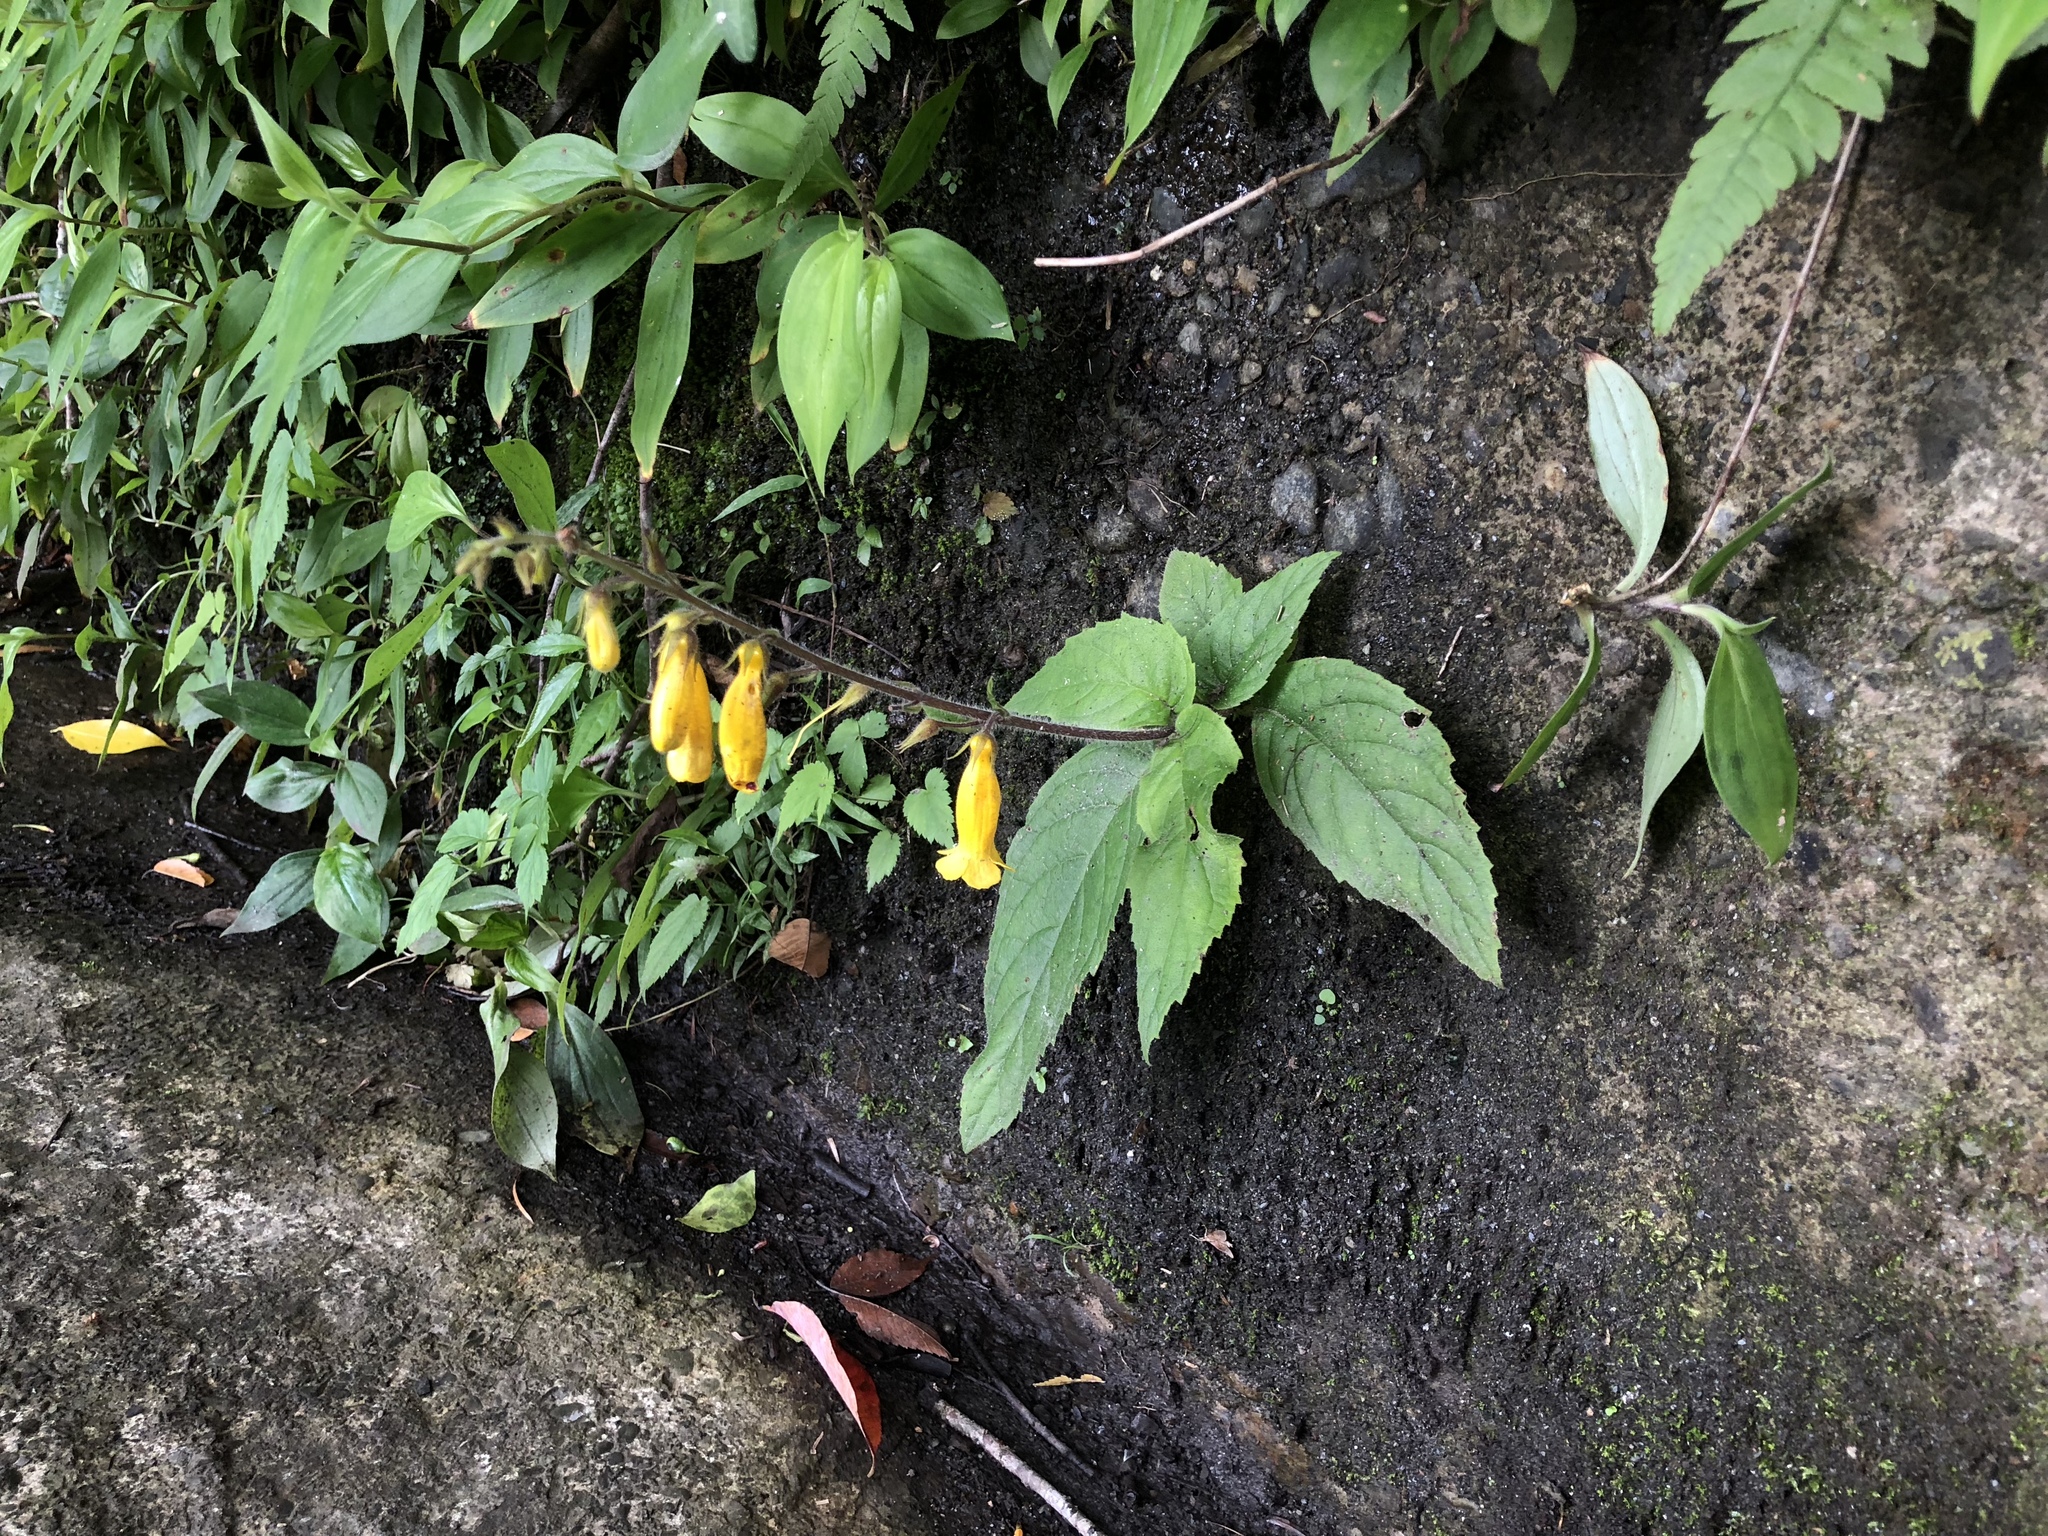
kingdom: Plantae
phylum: Tracheophyta
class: Magnoliopsida
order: Lamiales
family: Gesneriaceae
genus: Titanotrichum
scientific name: Titanotrichum oldhamii
